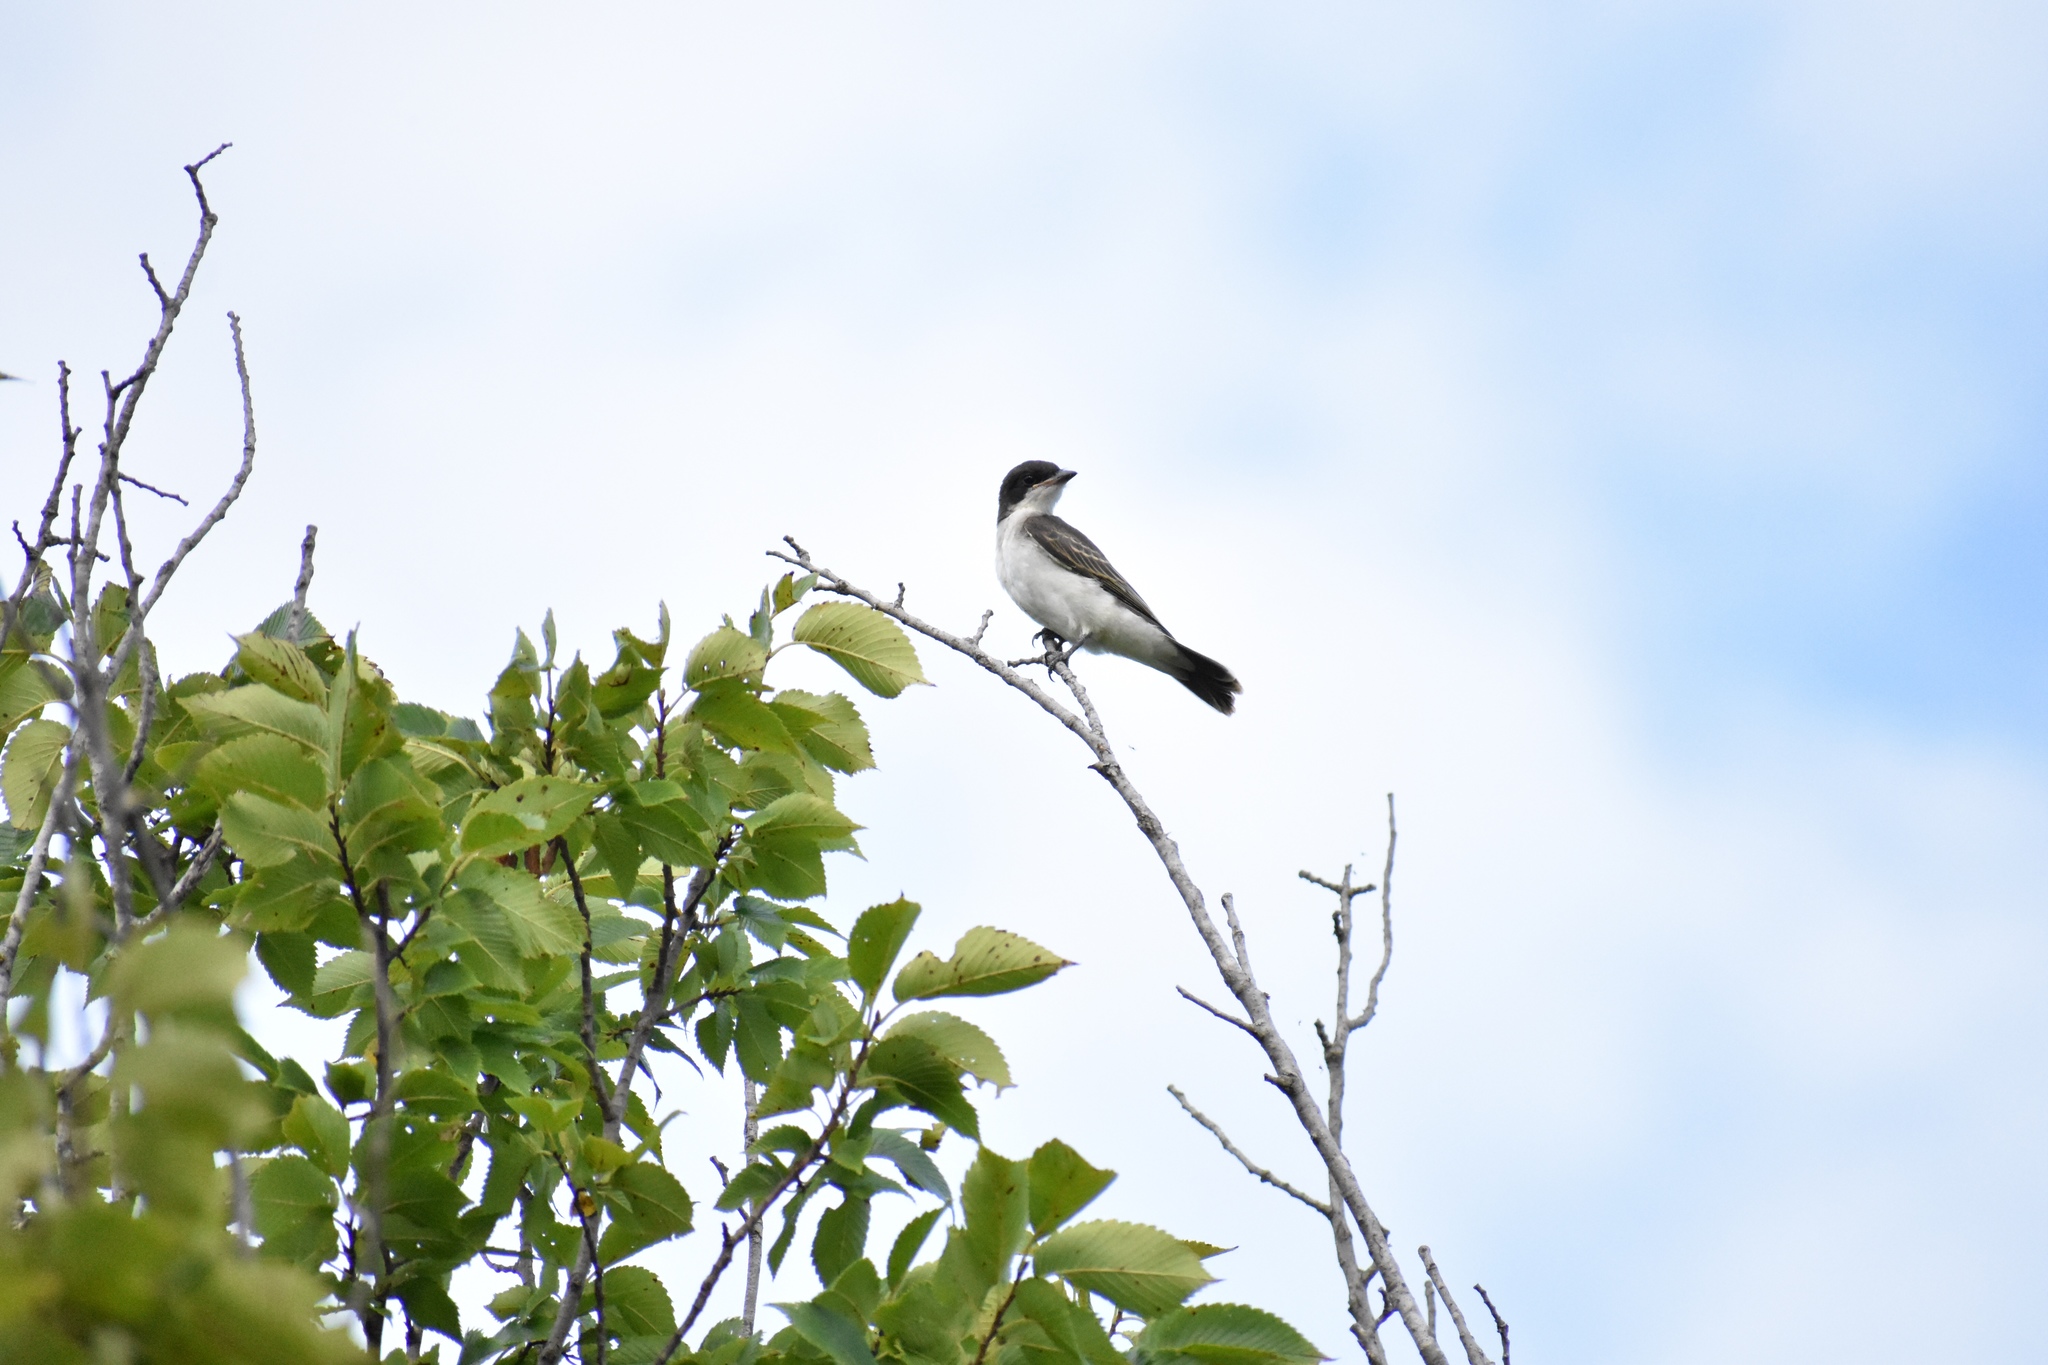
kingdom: Animalia
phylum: Chordata
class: Aves
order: Passeriformes
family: Tyrannidae
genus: Tyrannus
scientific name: Tyrannus tyrannus
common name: Eastern kingbird
